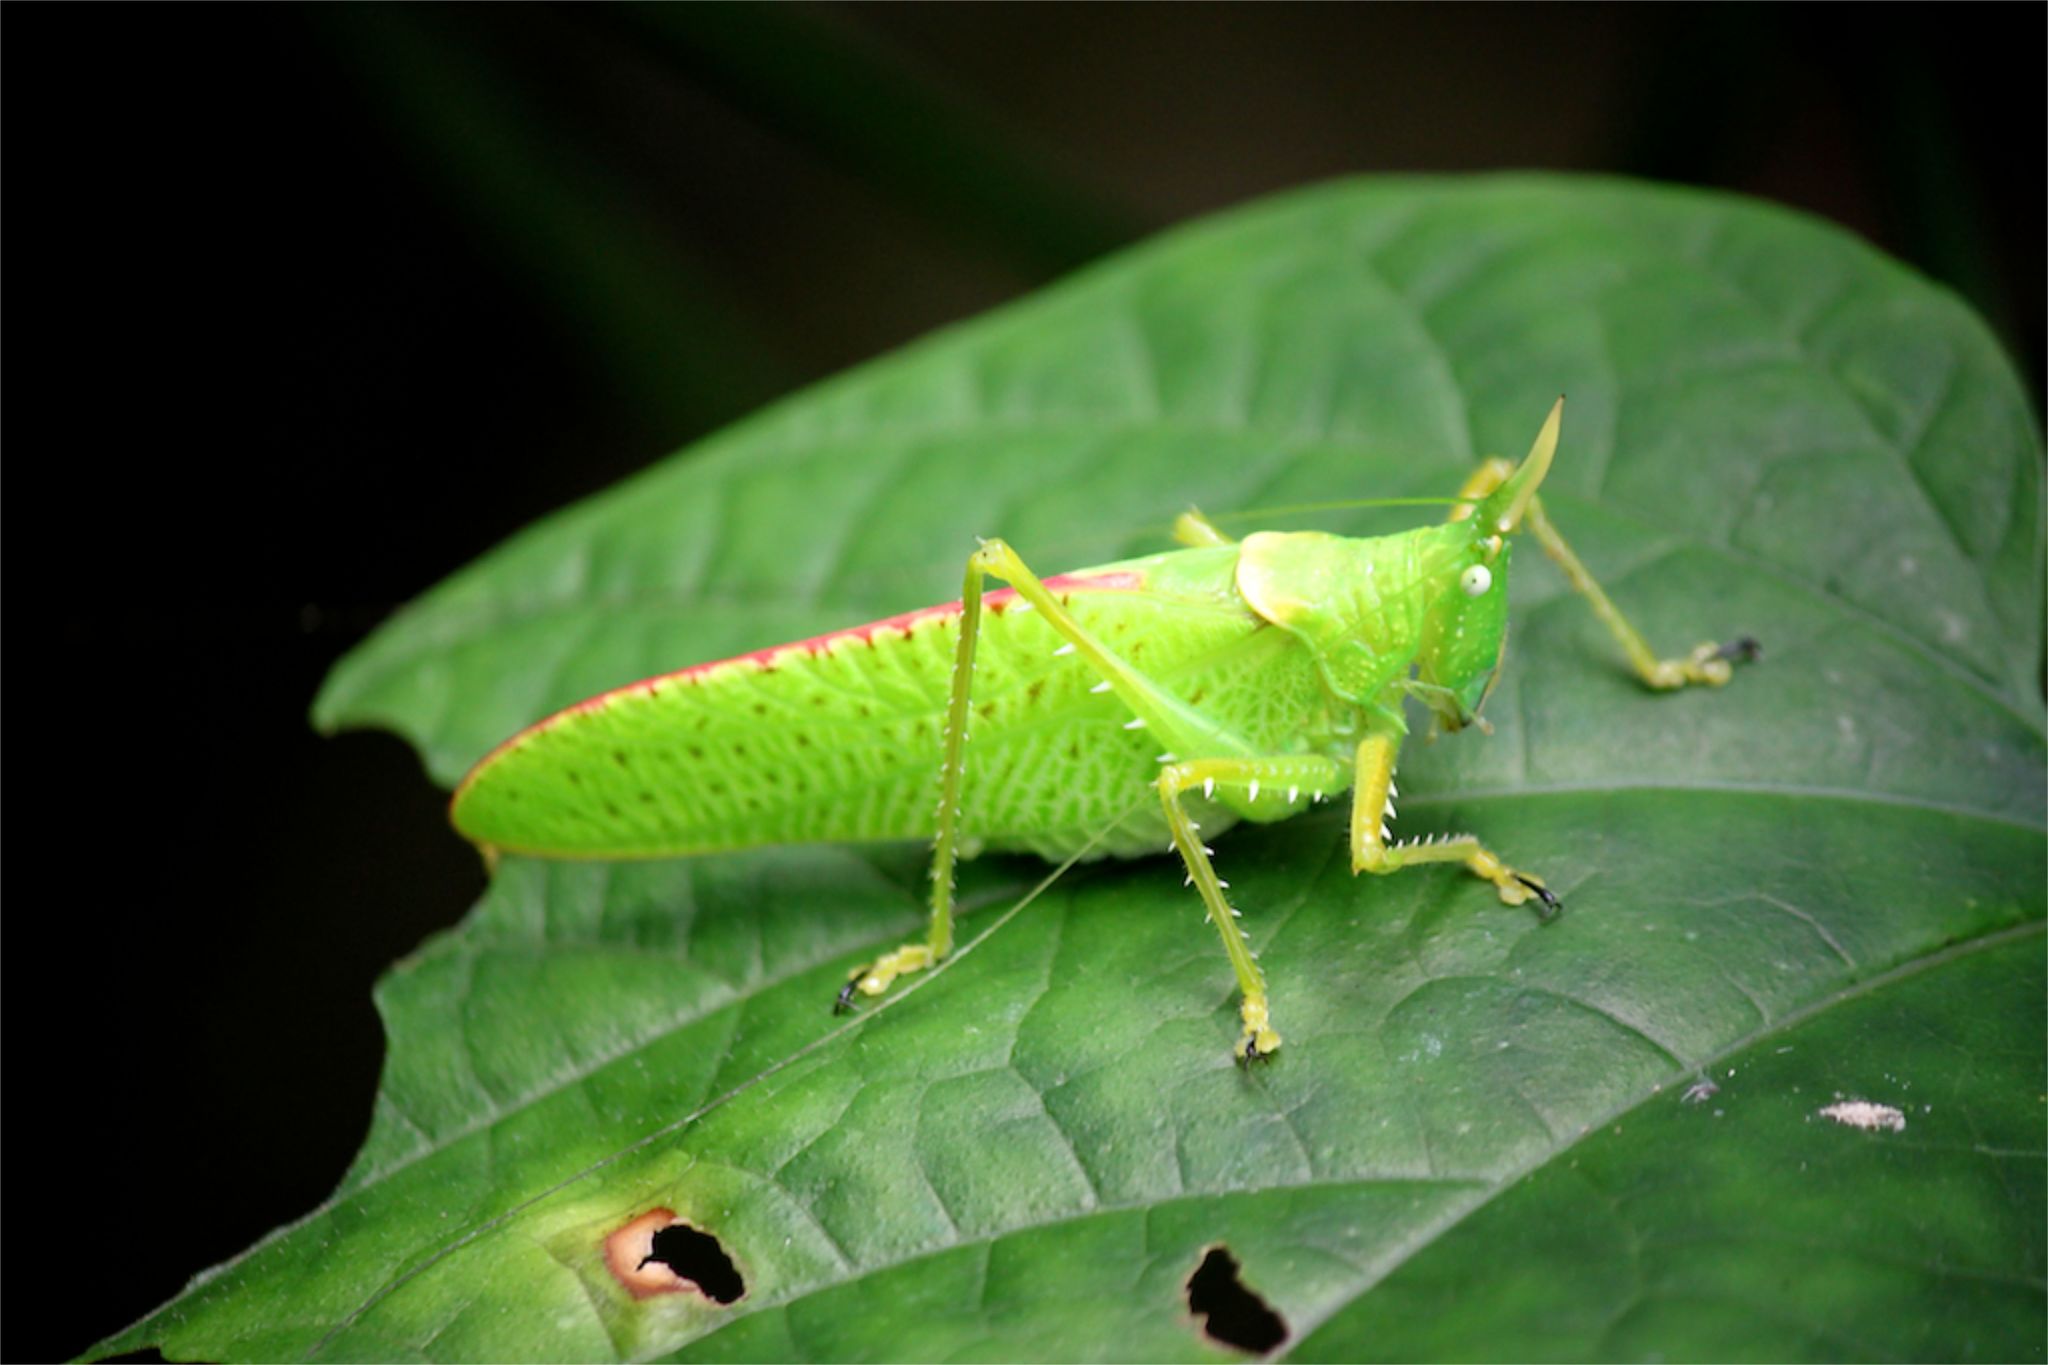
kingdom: Animalia
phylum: Arthropoda
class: Insecta
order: Orthoptera
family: Tettigoniidae
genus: Copiphora
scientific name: Copiphora rhinoceros
